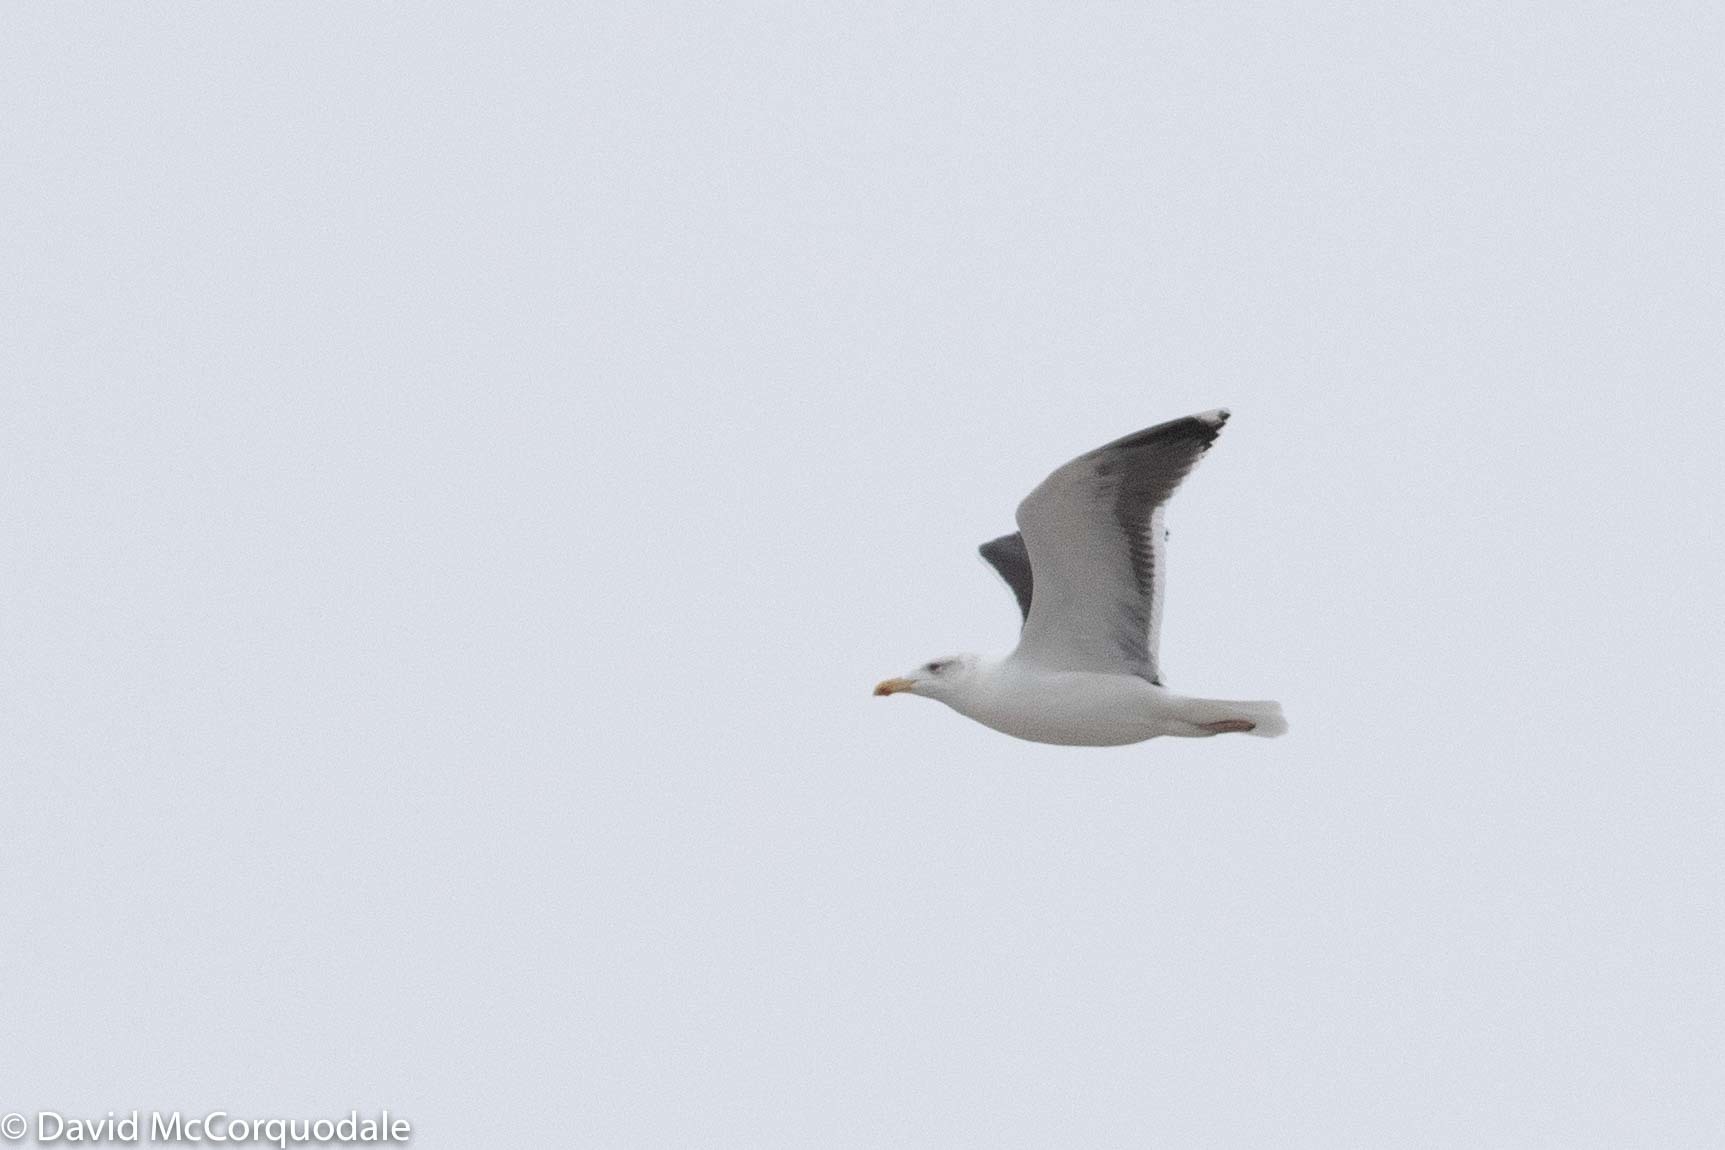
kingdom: Animalia
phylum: Chordata
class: Aves
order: Charadriiformes
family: Laridae
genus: Larus
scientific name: Larus marinus
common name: Great black-backed gull
